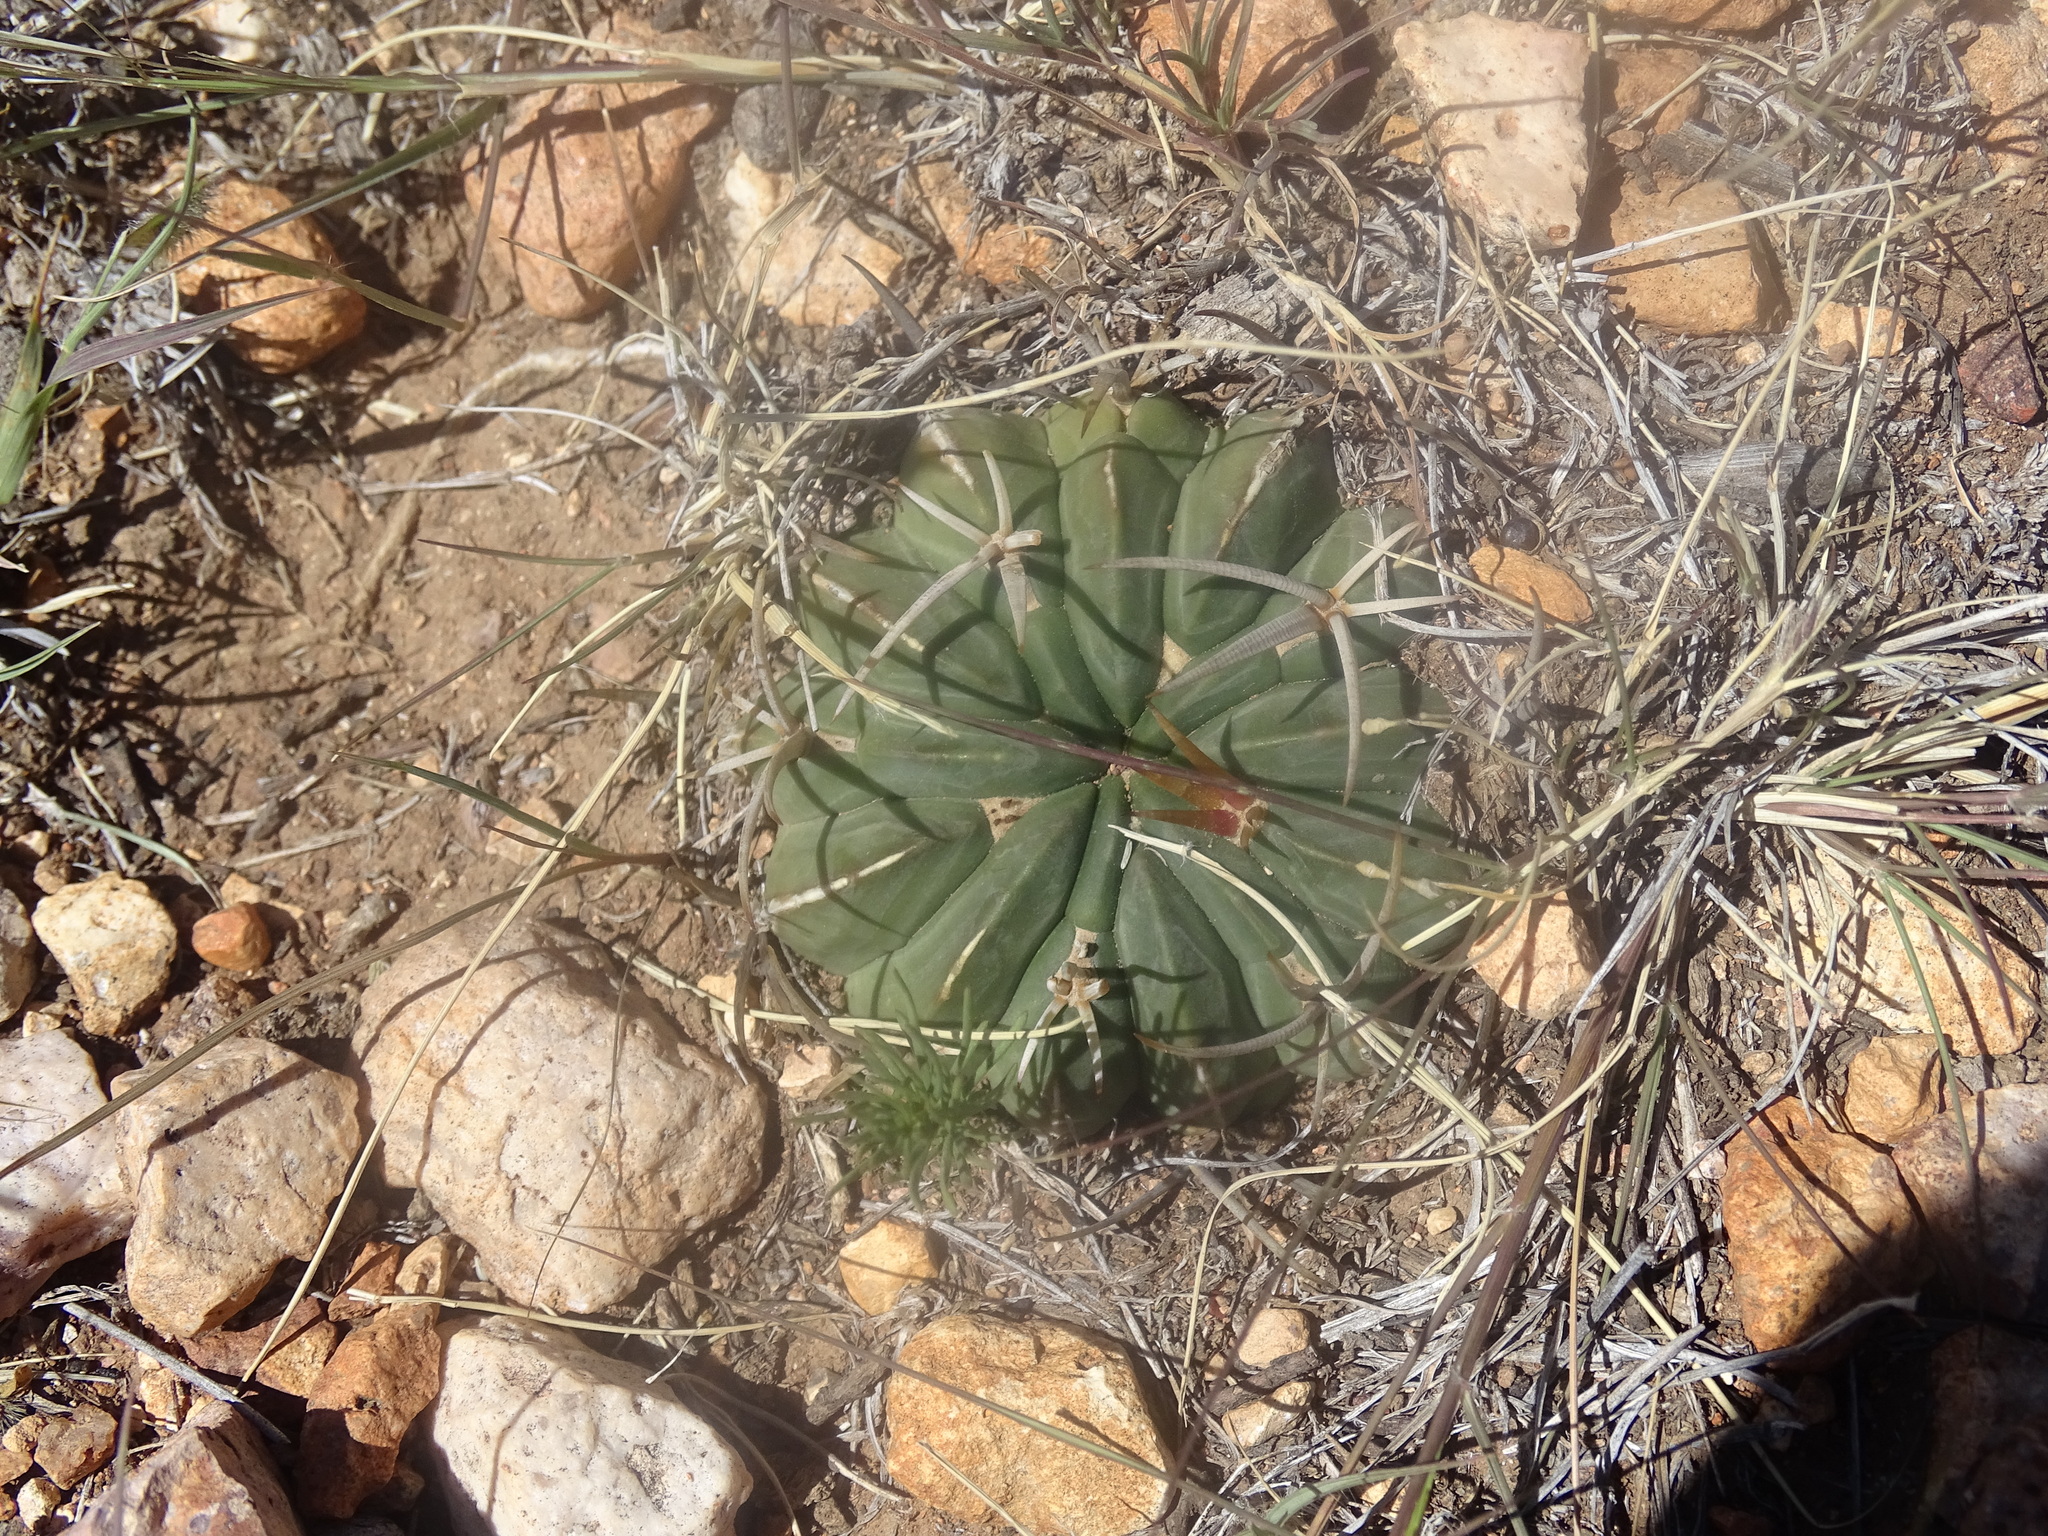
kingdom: Plantae
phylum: Tracheophyta
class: Magnoliopsida
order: Caryophyllales
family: Cactaceae
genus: Stenocactus
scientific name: Stenocactus coptonogonus
